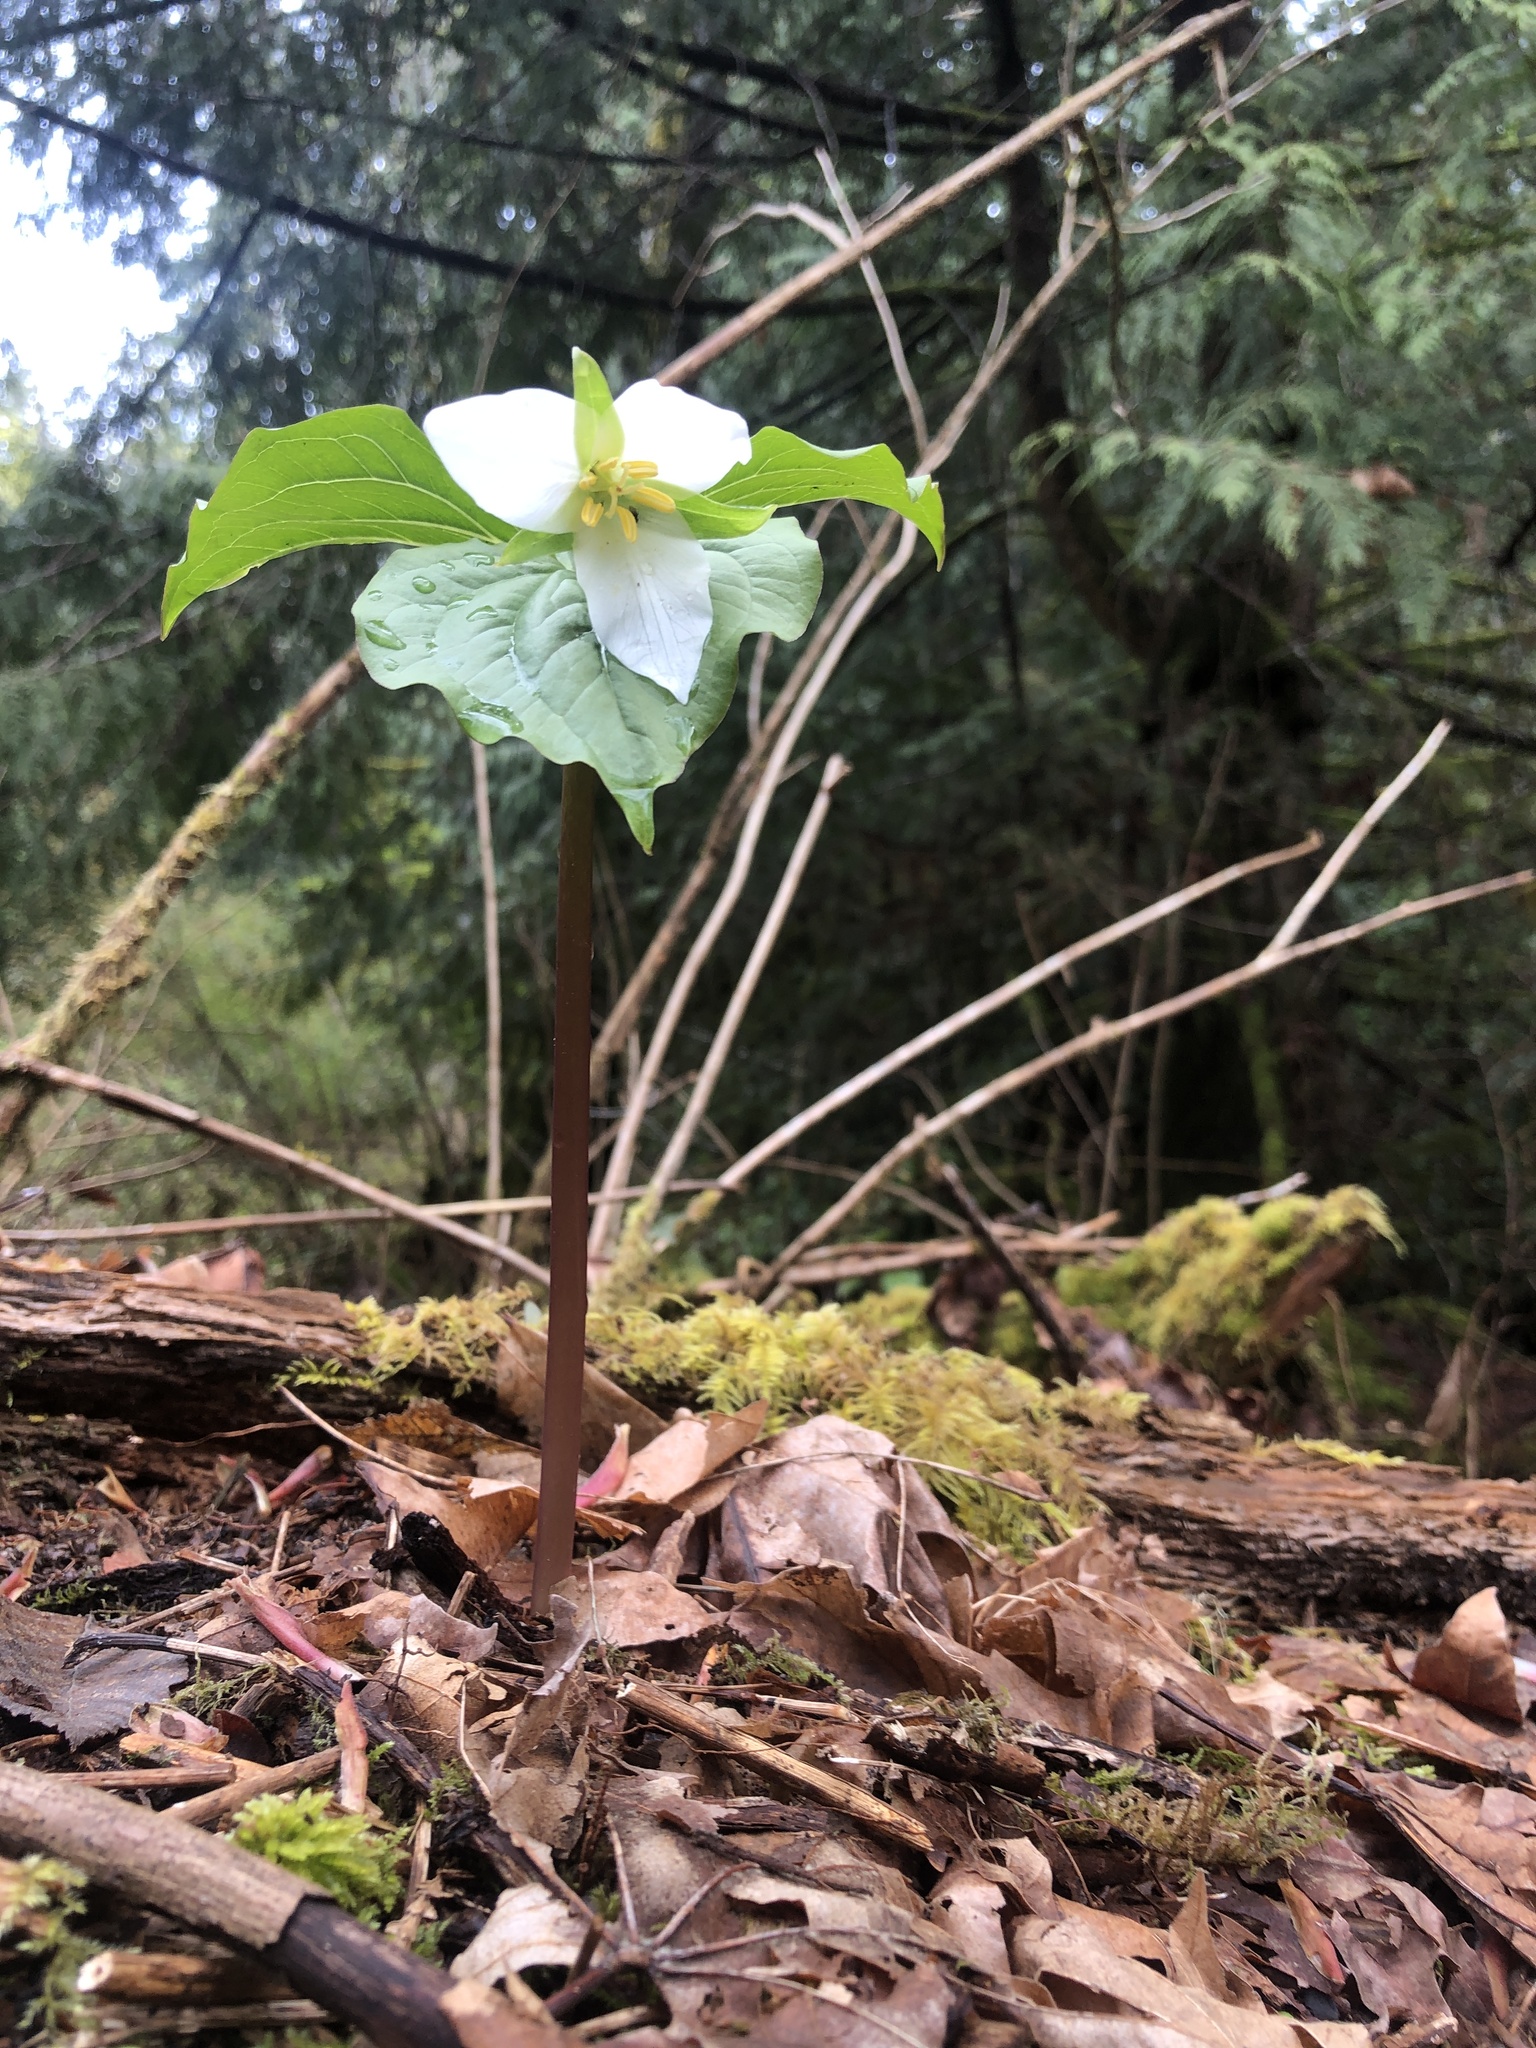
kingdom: Plantae
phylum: Tracheophyta
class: Liliopsida
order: Liliales
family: Melanthiaceae
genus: Trillium
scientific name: Trillium ovatum
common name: Pacific trillium
